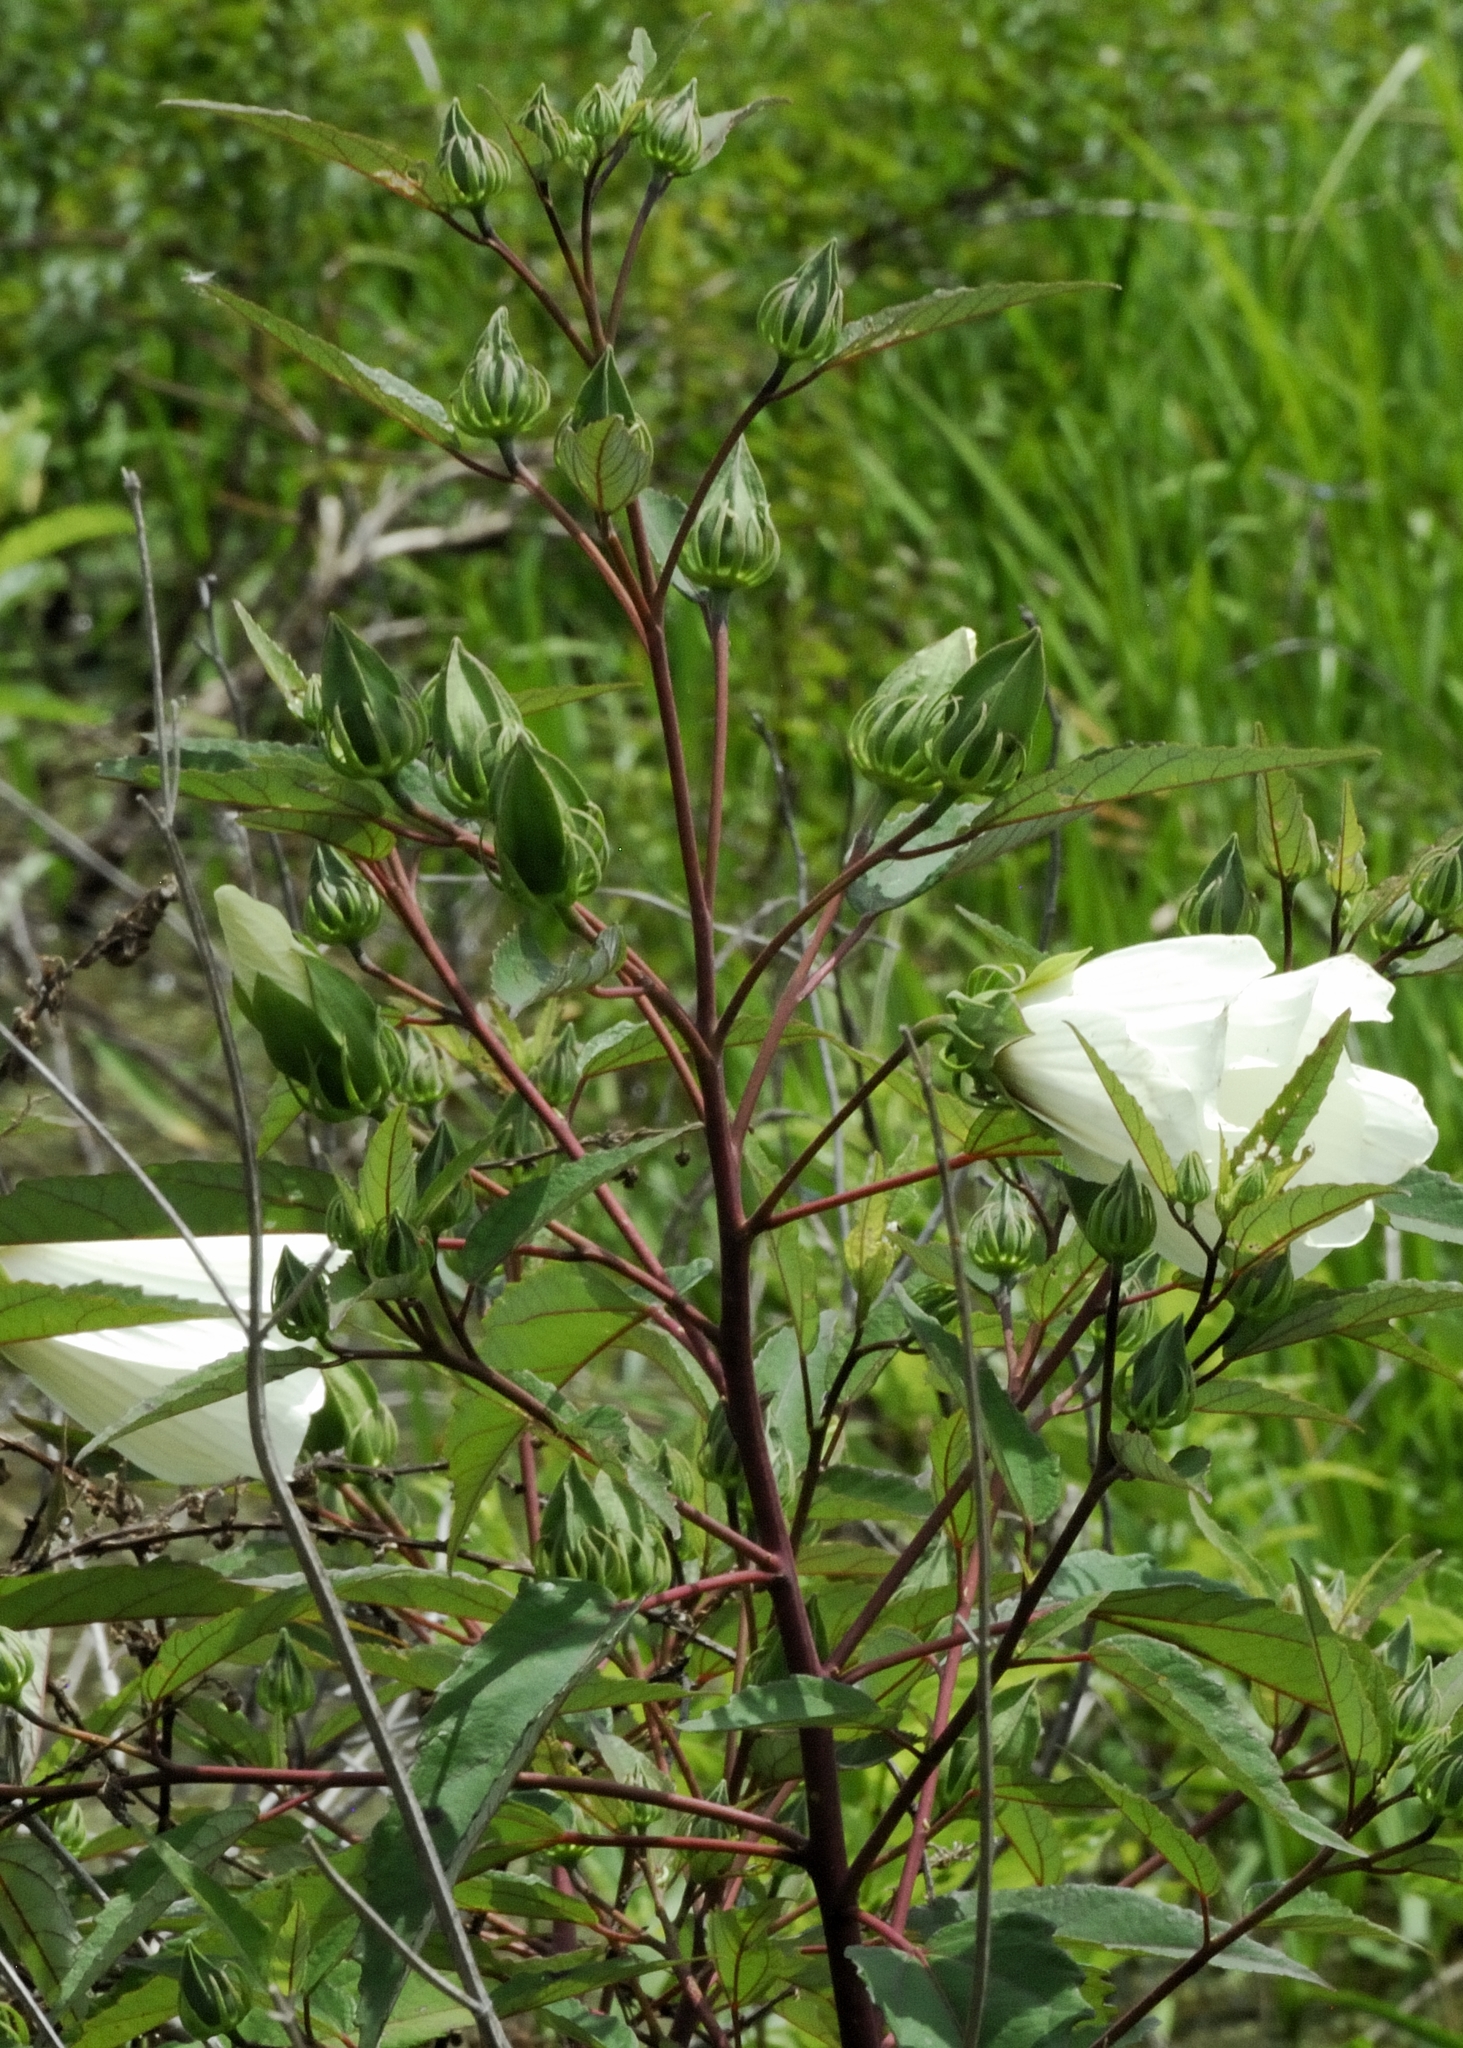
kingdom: Plantae
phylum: Tracheophyta
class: Magnoliopsida
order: Malvales
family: Malvaceae
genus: Hibiscus
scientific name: Hibiscus moscheutos
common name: Common rose-mallow
